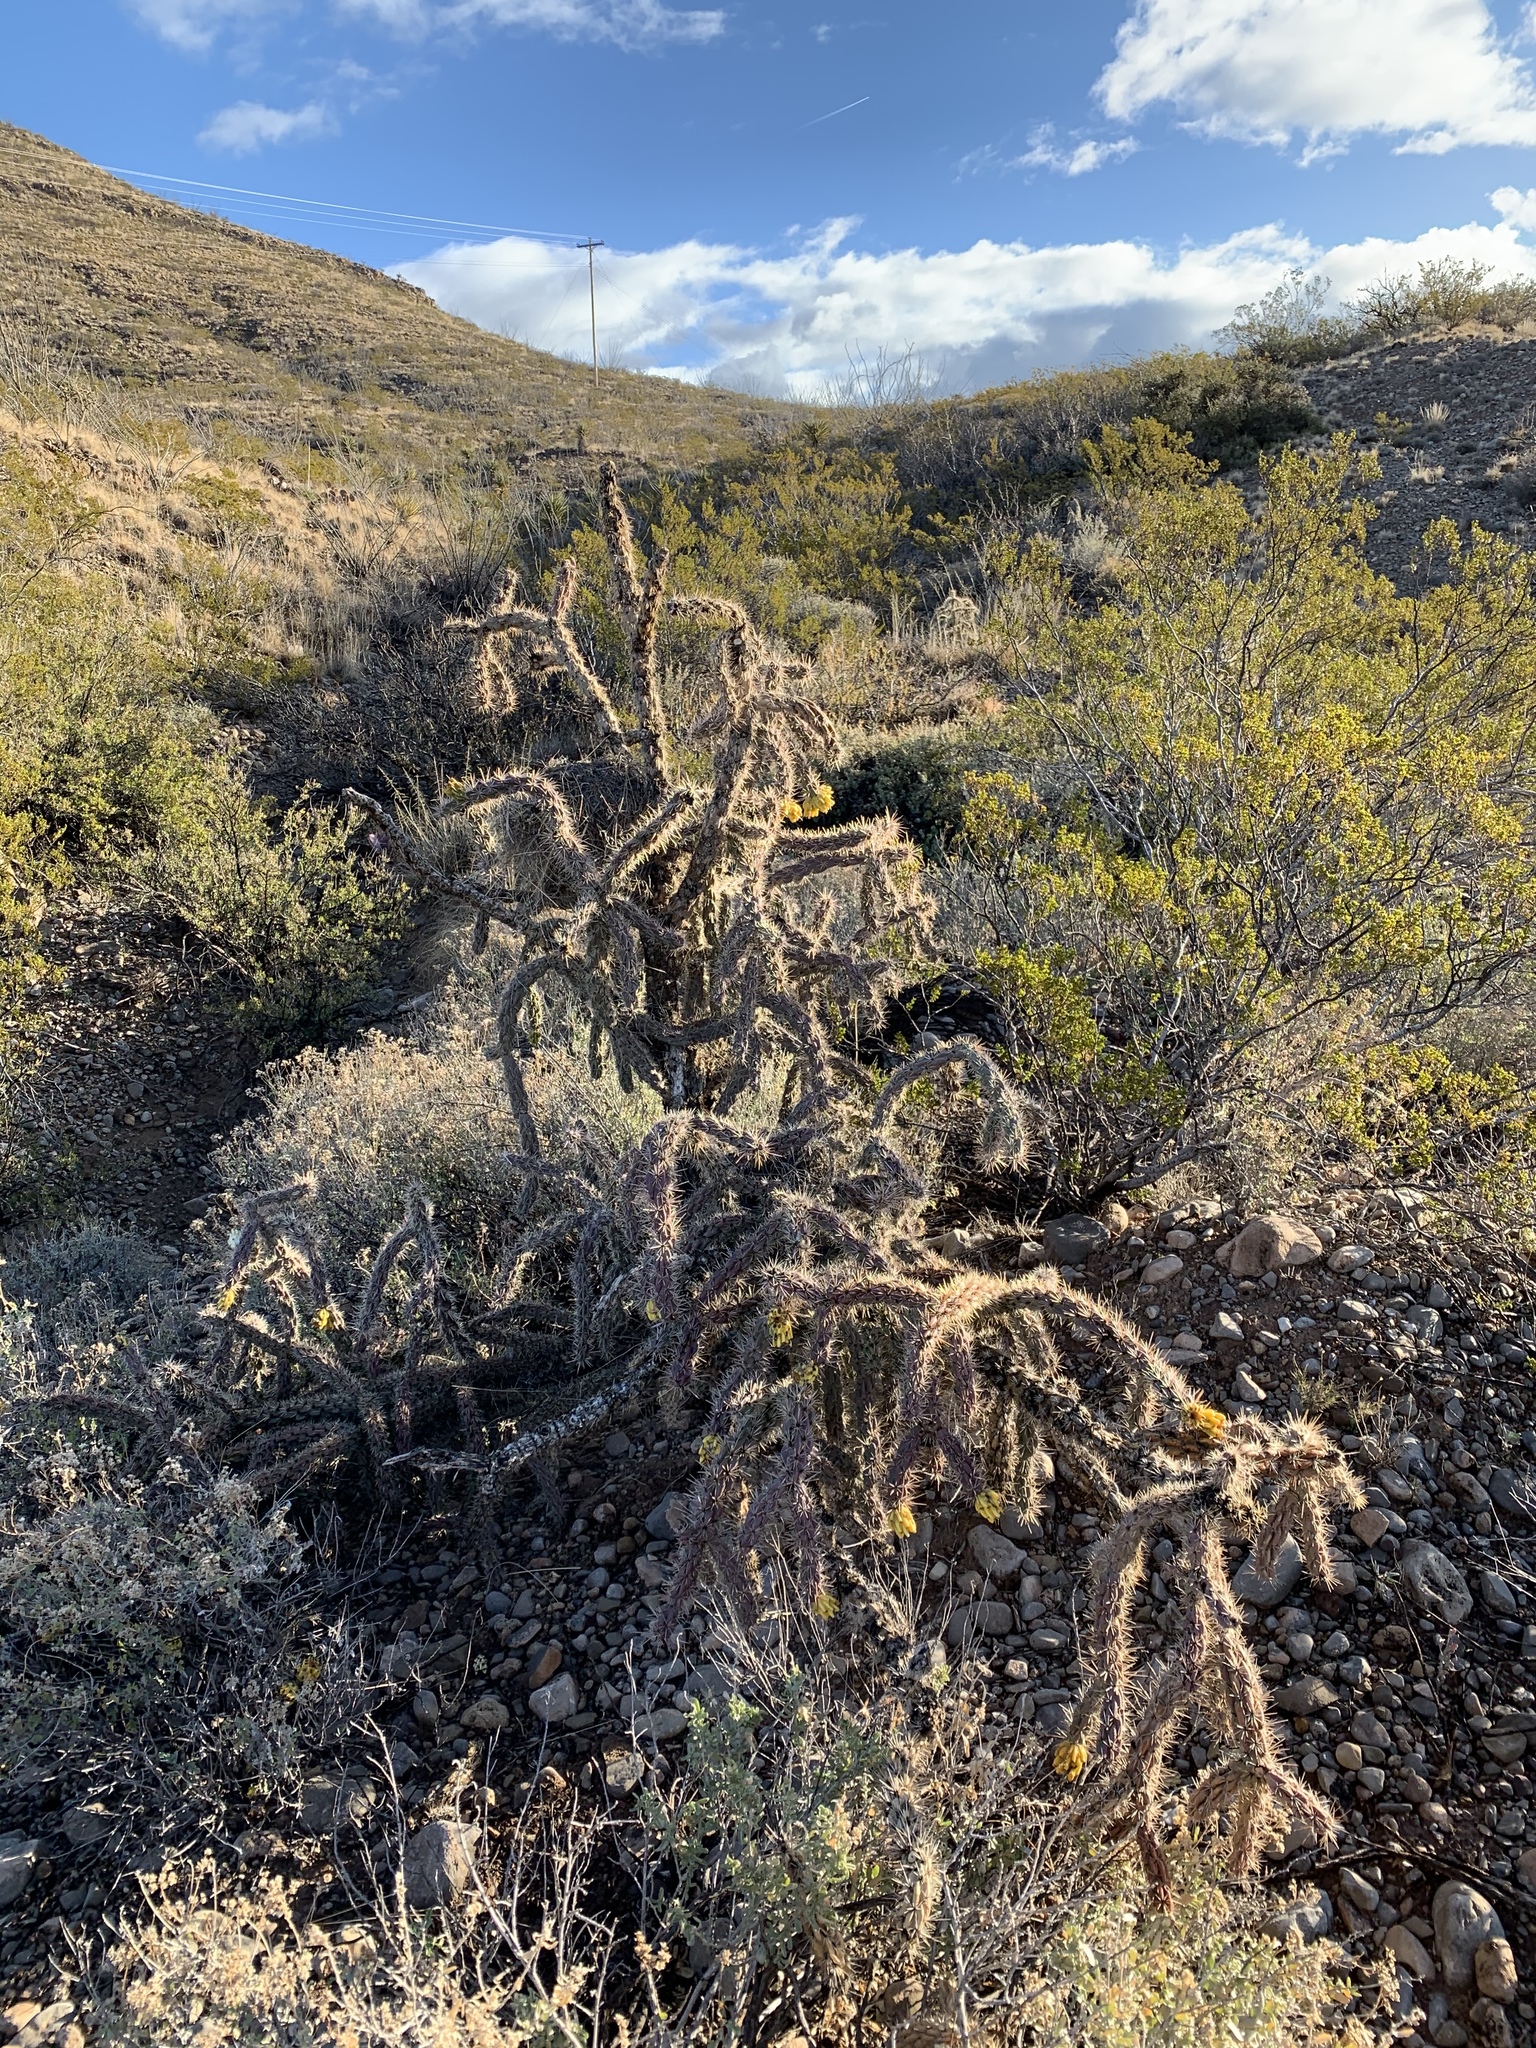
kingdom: Plantae
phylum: Tracheophyta
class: Magnoliopsida
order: Caryophyllales
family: Cactaceae
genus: Cylindropuntia
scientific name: Cylindropuntia imbricata
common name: Candelabrum cactus
